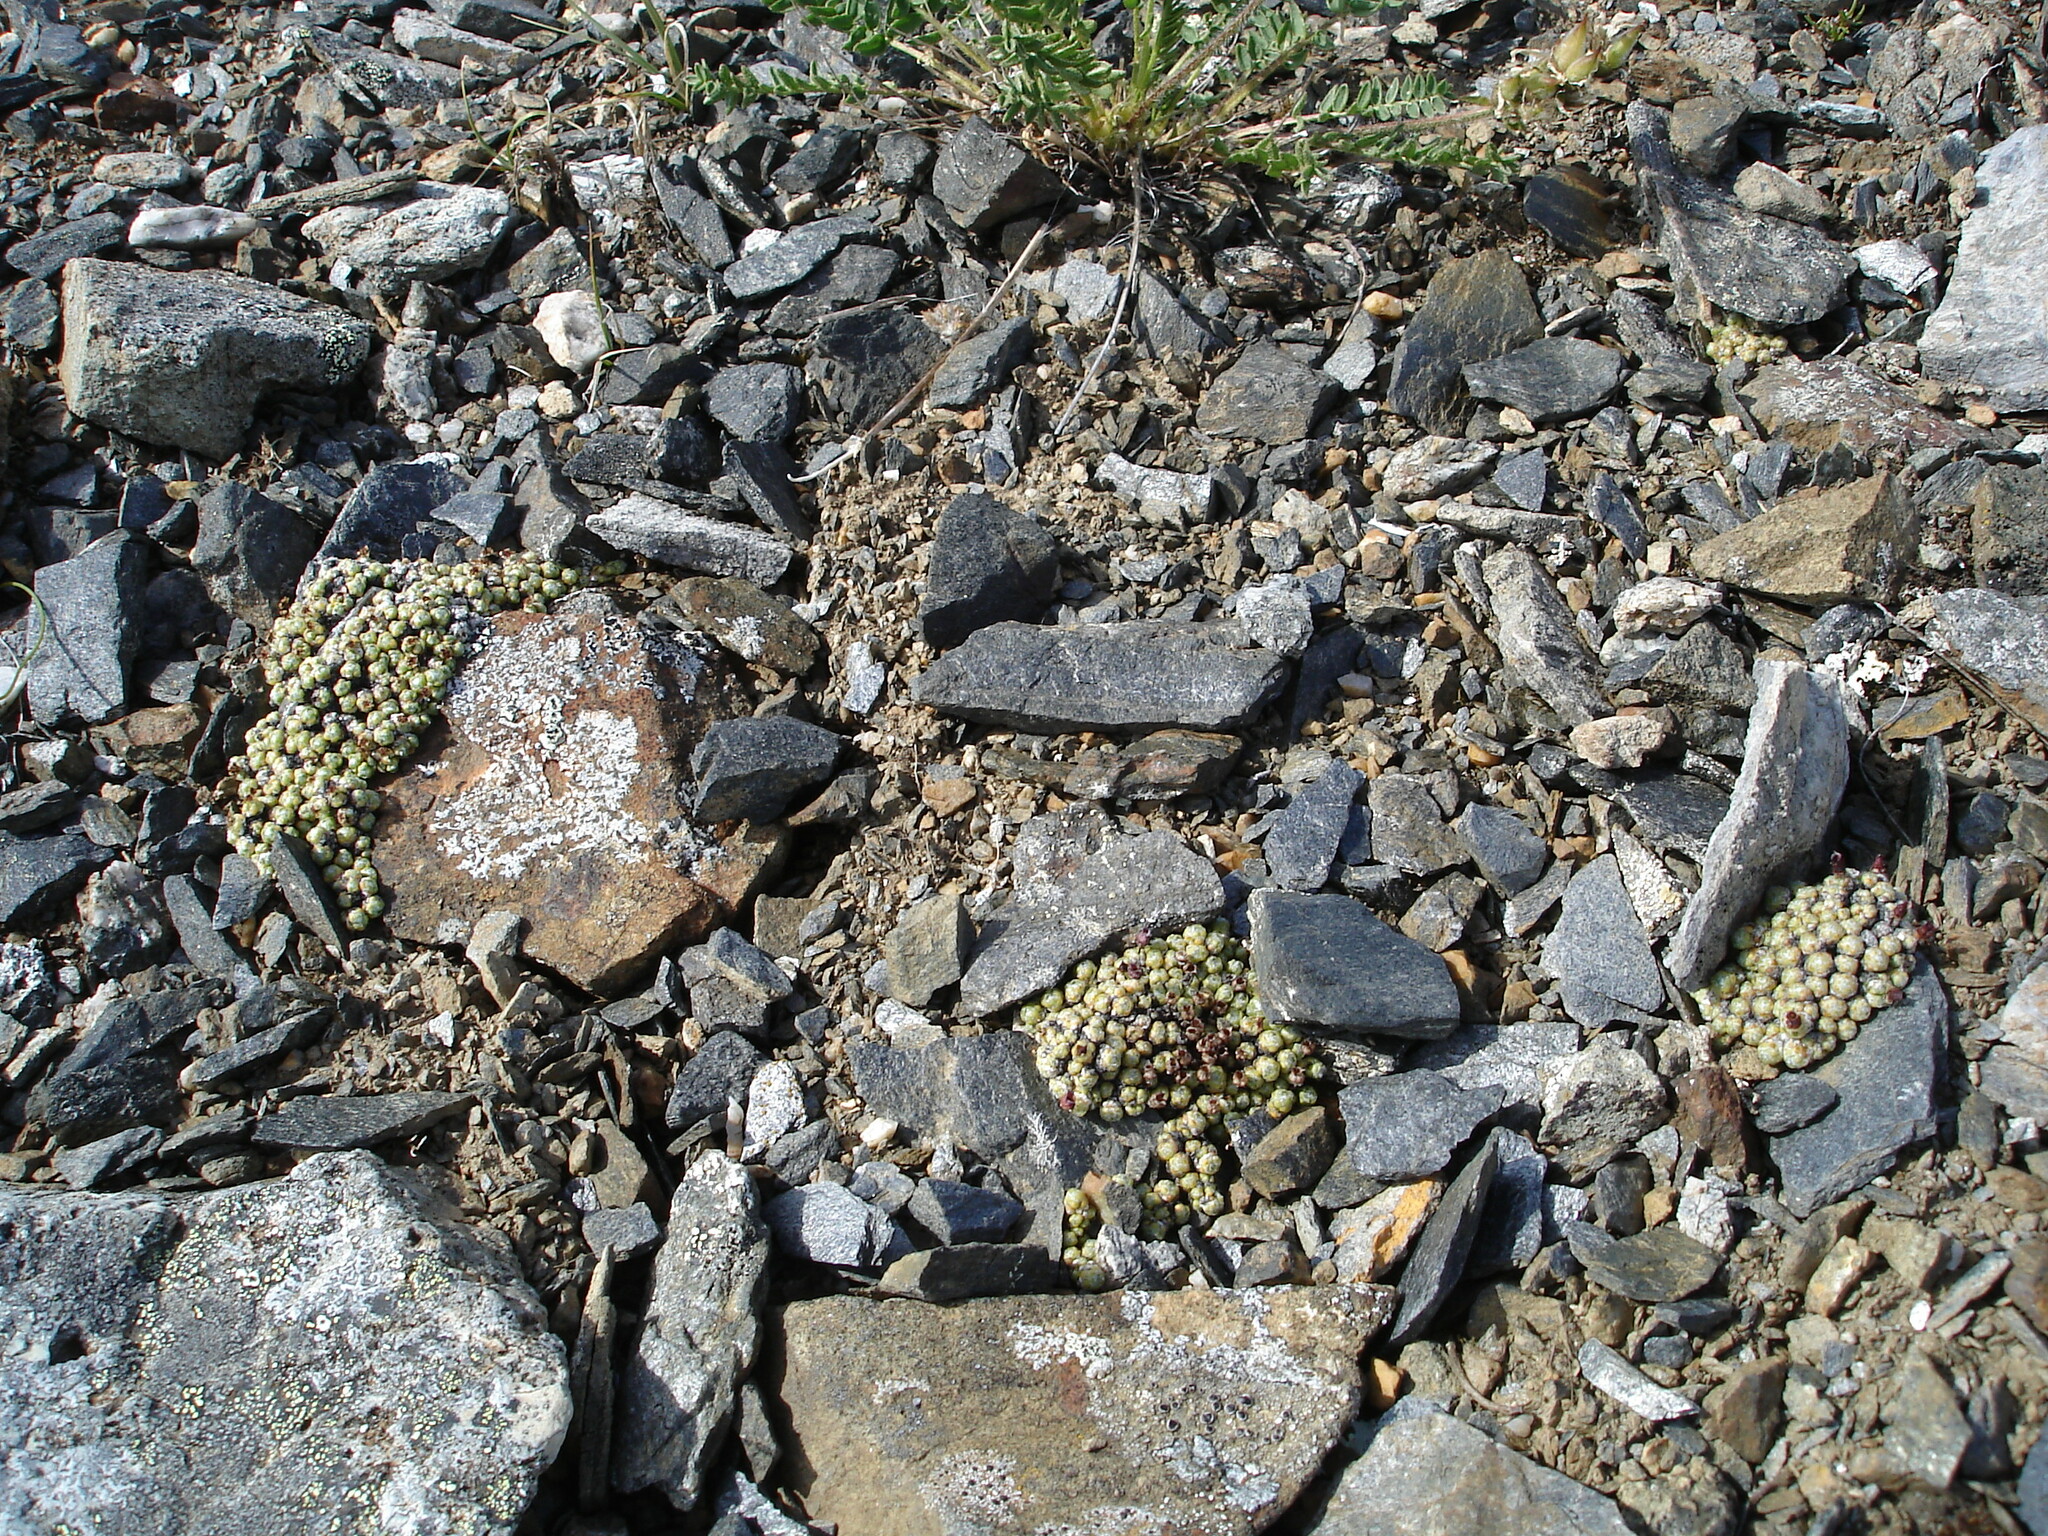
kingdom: Plantae
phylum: Tracheophyta
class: Magnoliopsida
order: Saxifragales
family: Saxifragaceae
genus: Saxifraga
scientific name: Saxifraga eschscholtzii
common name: Eschscholtz's saxifrage
